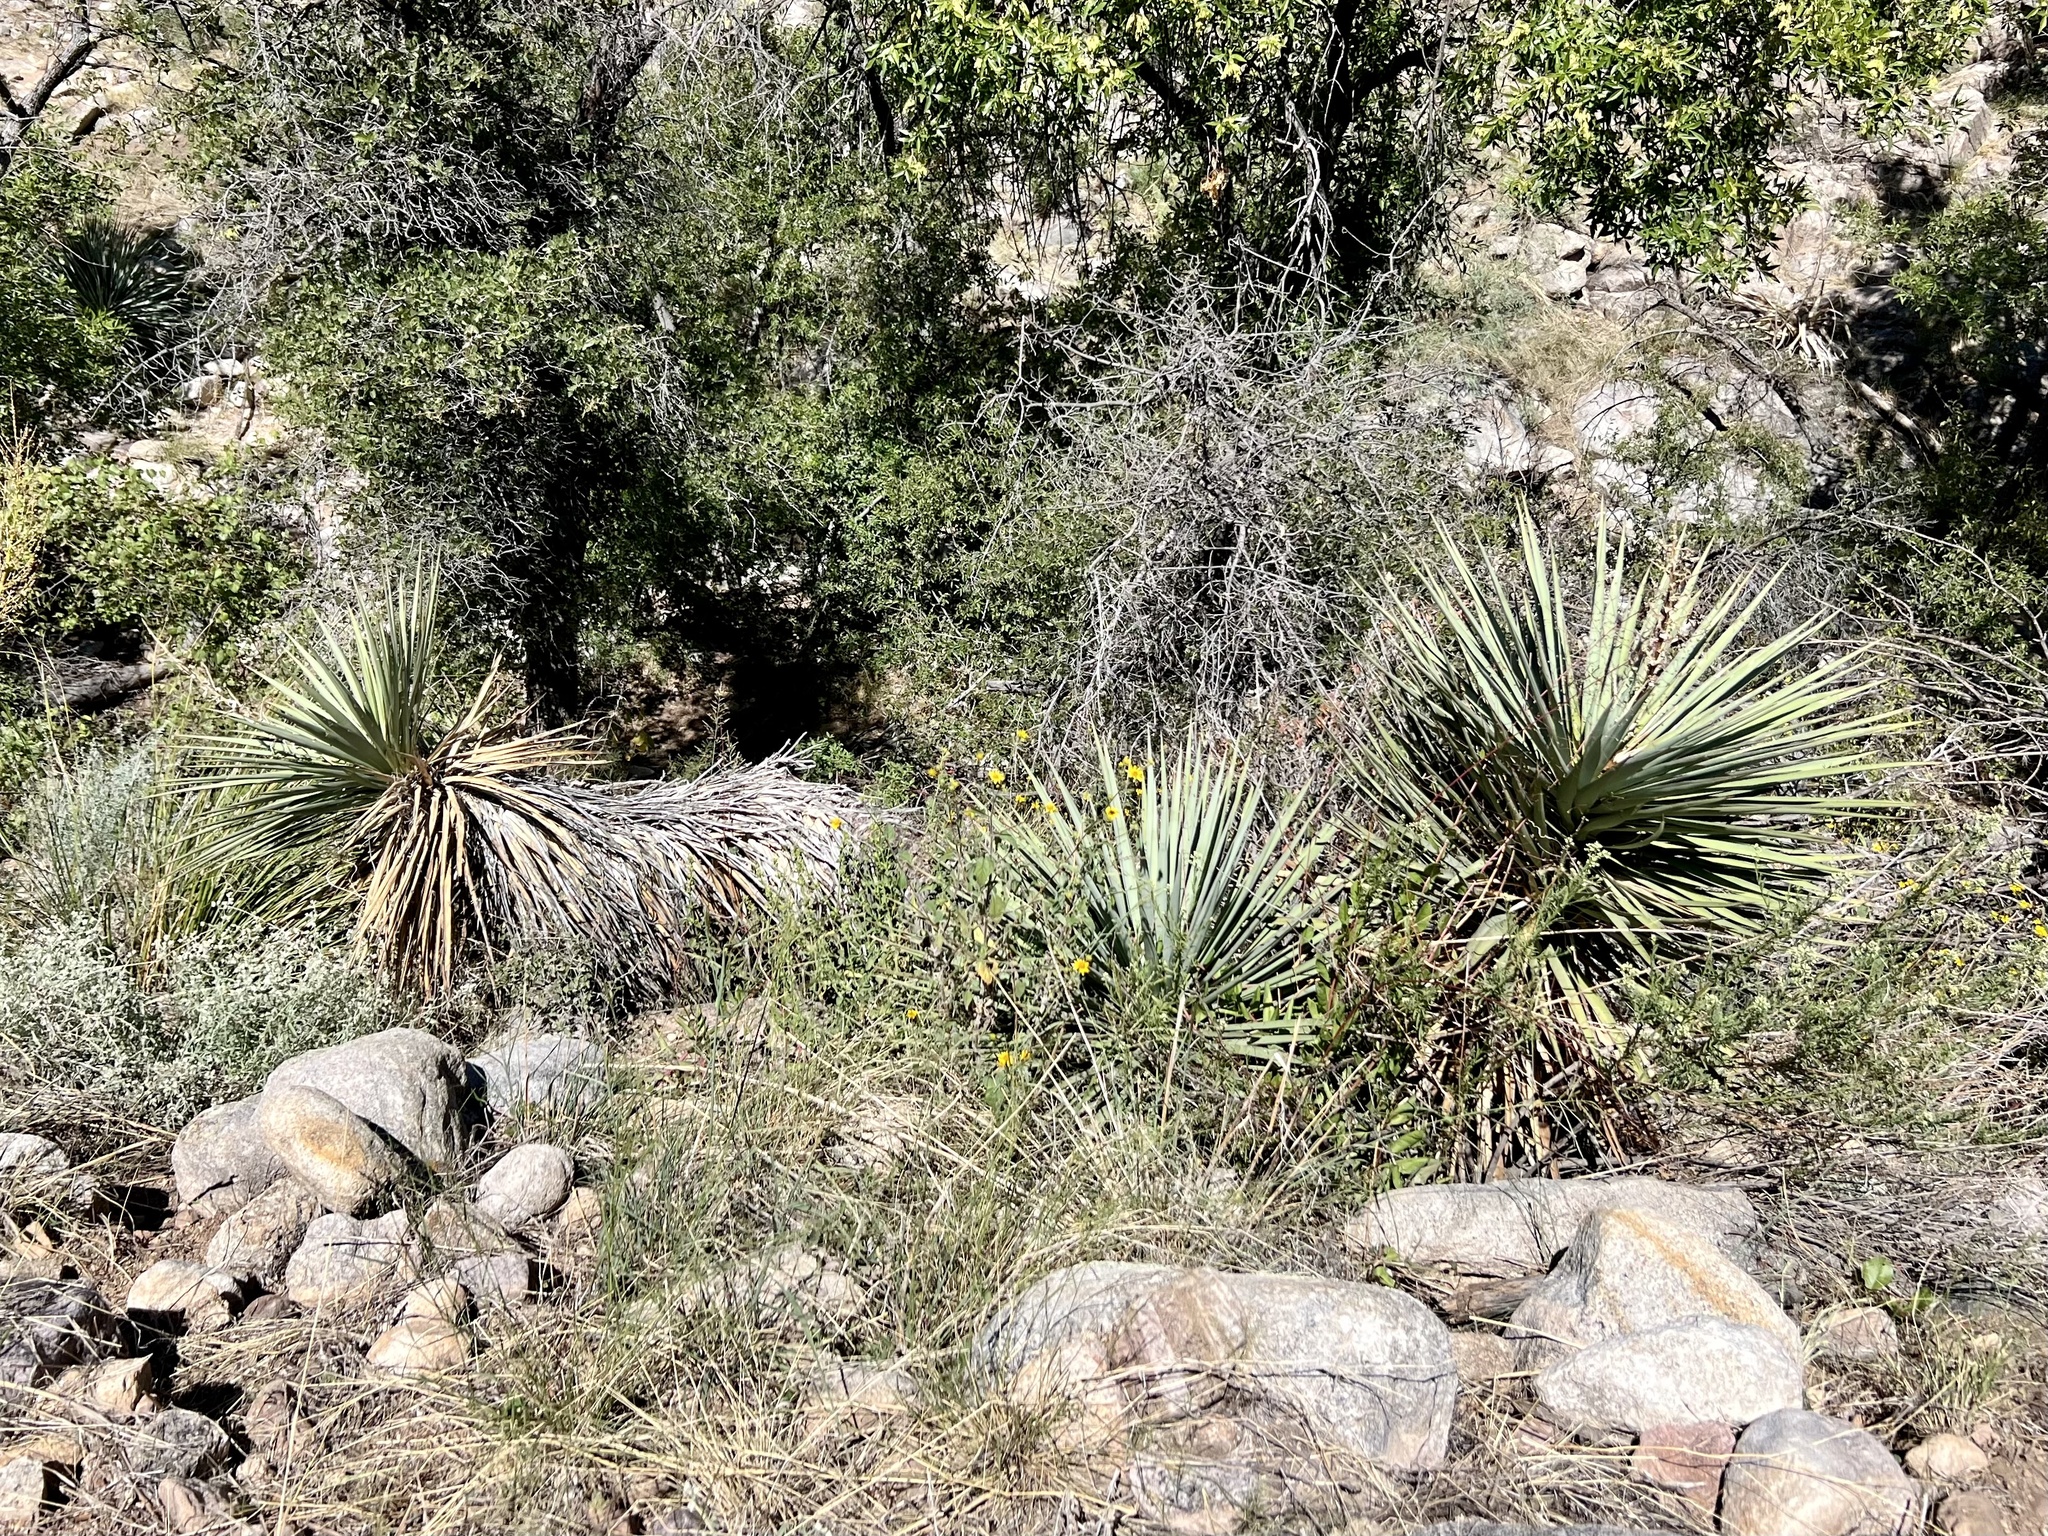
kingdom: Plantae
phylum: Tracheophyta
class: Liliopsida
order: Asparagales
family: Asparagaceae
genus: Yucca
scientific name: Yucca madrensis
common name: Hoary yucca
